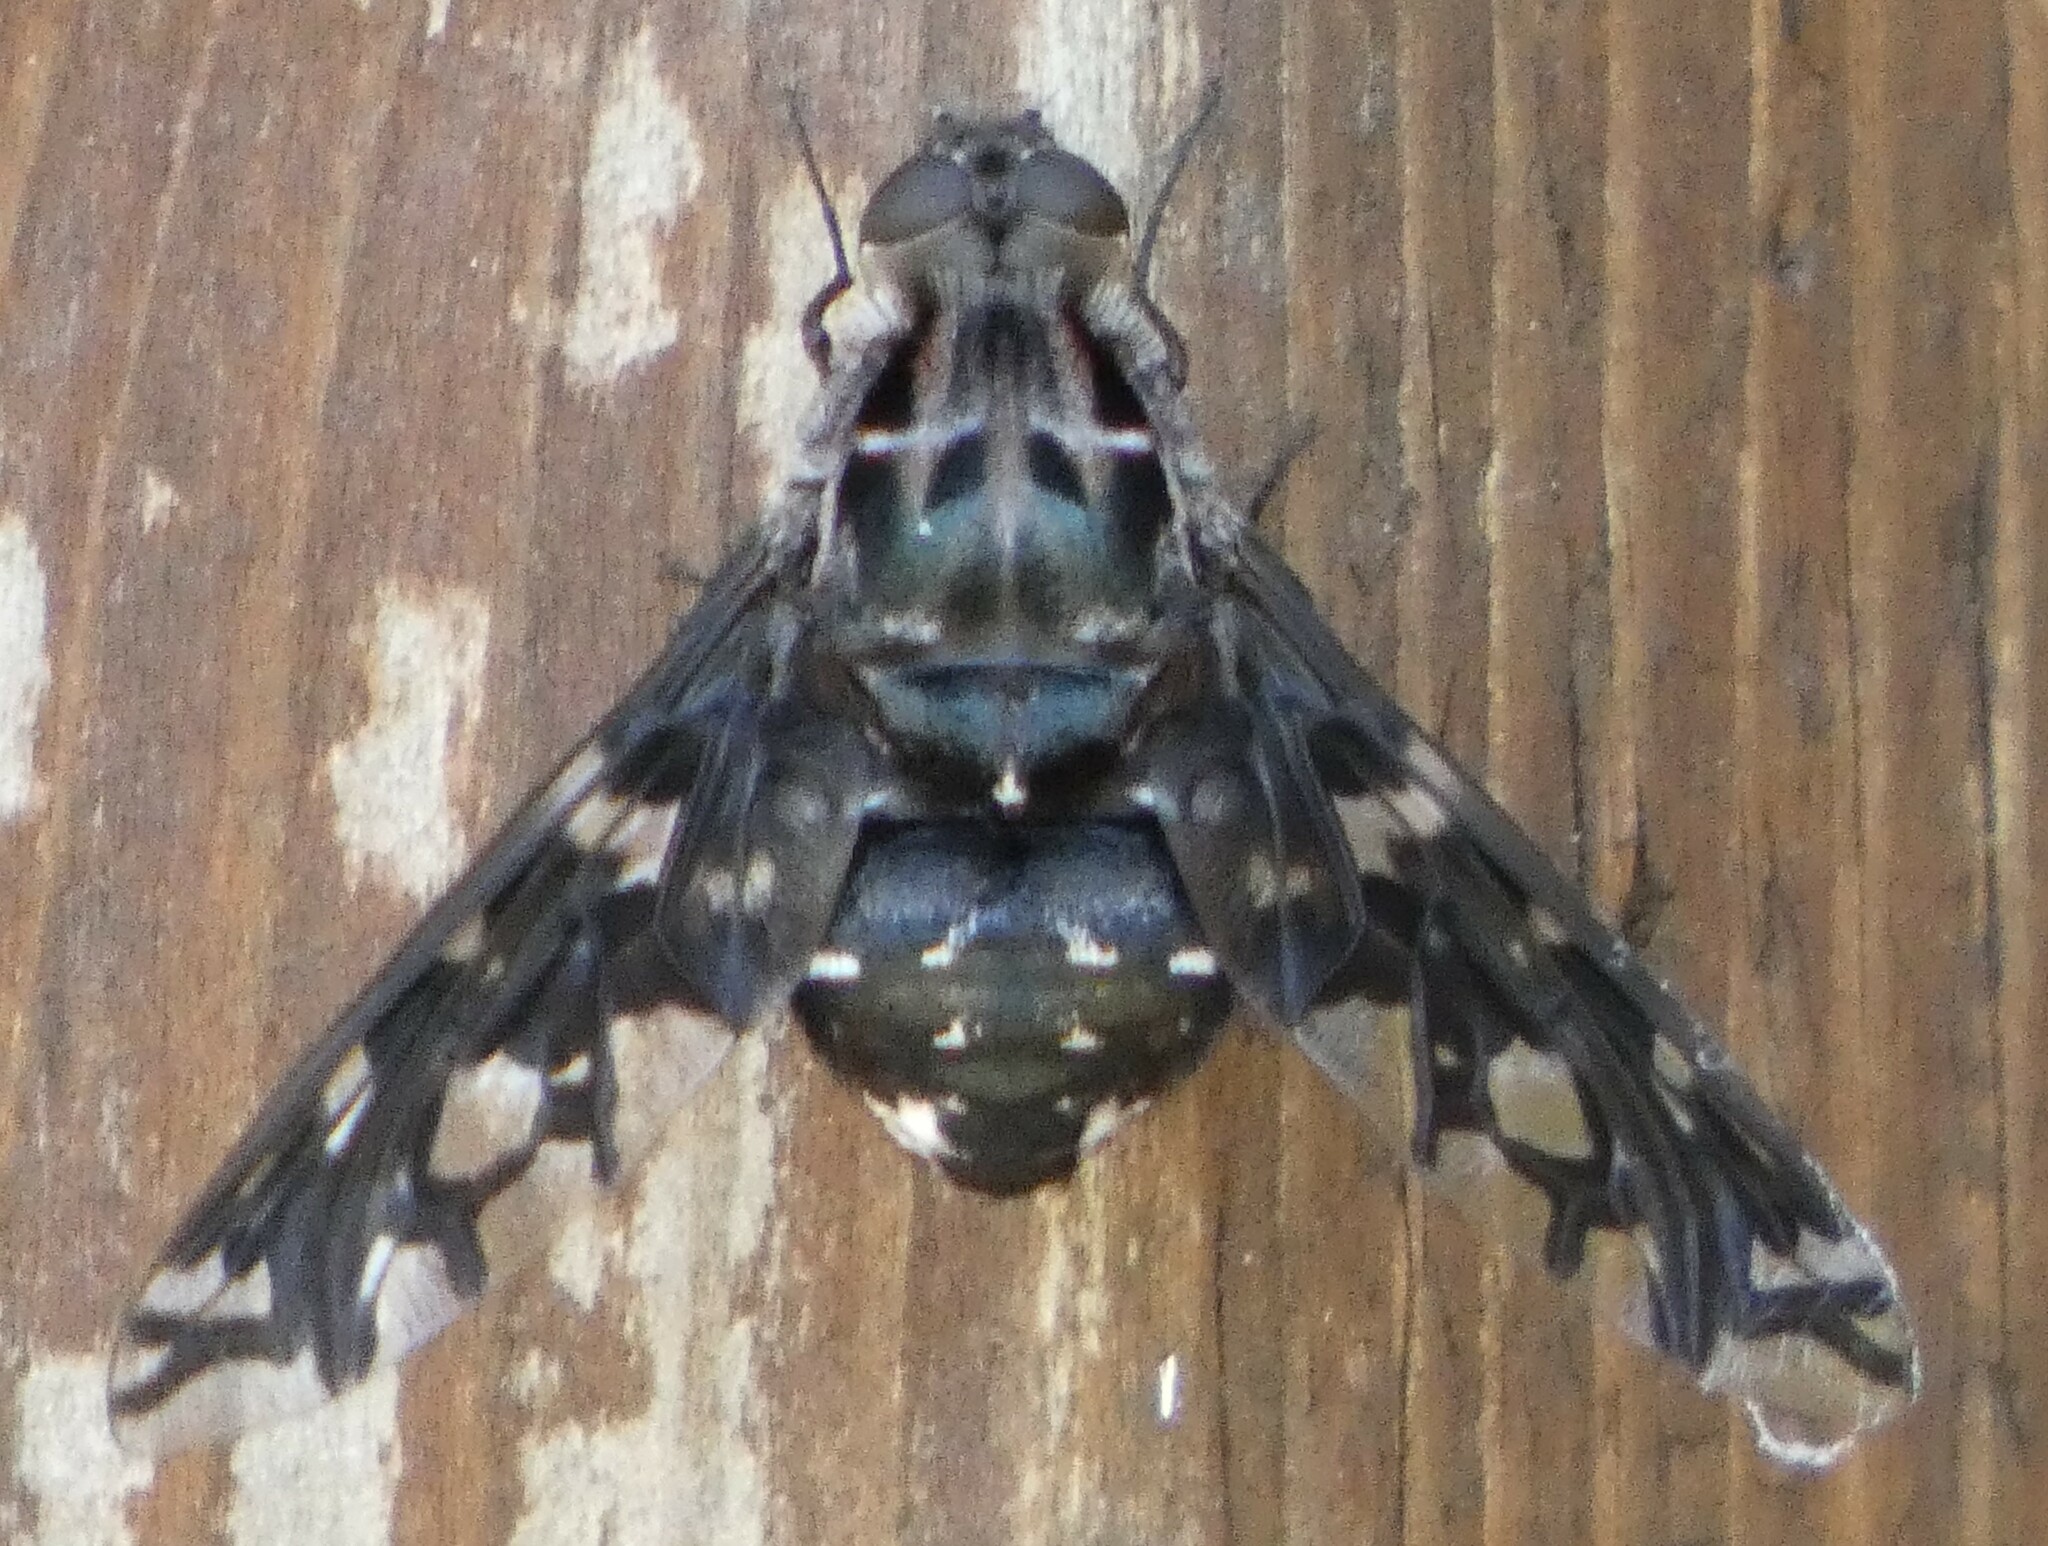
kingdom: Animalia
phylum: Arthropoda
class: Insecta
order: Diptera
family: Bombyliidae
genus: Xenox
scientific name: Xenox tigrinus
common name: Tiger bee fly
